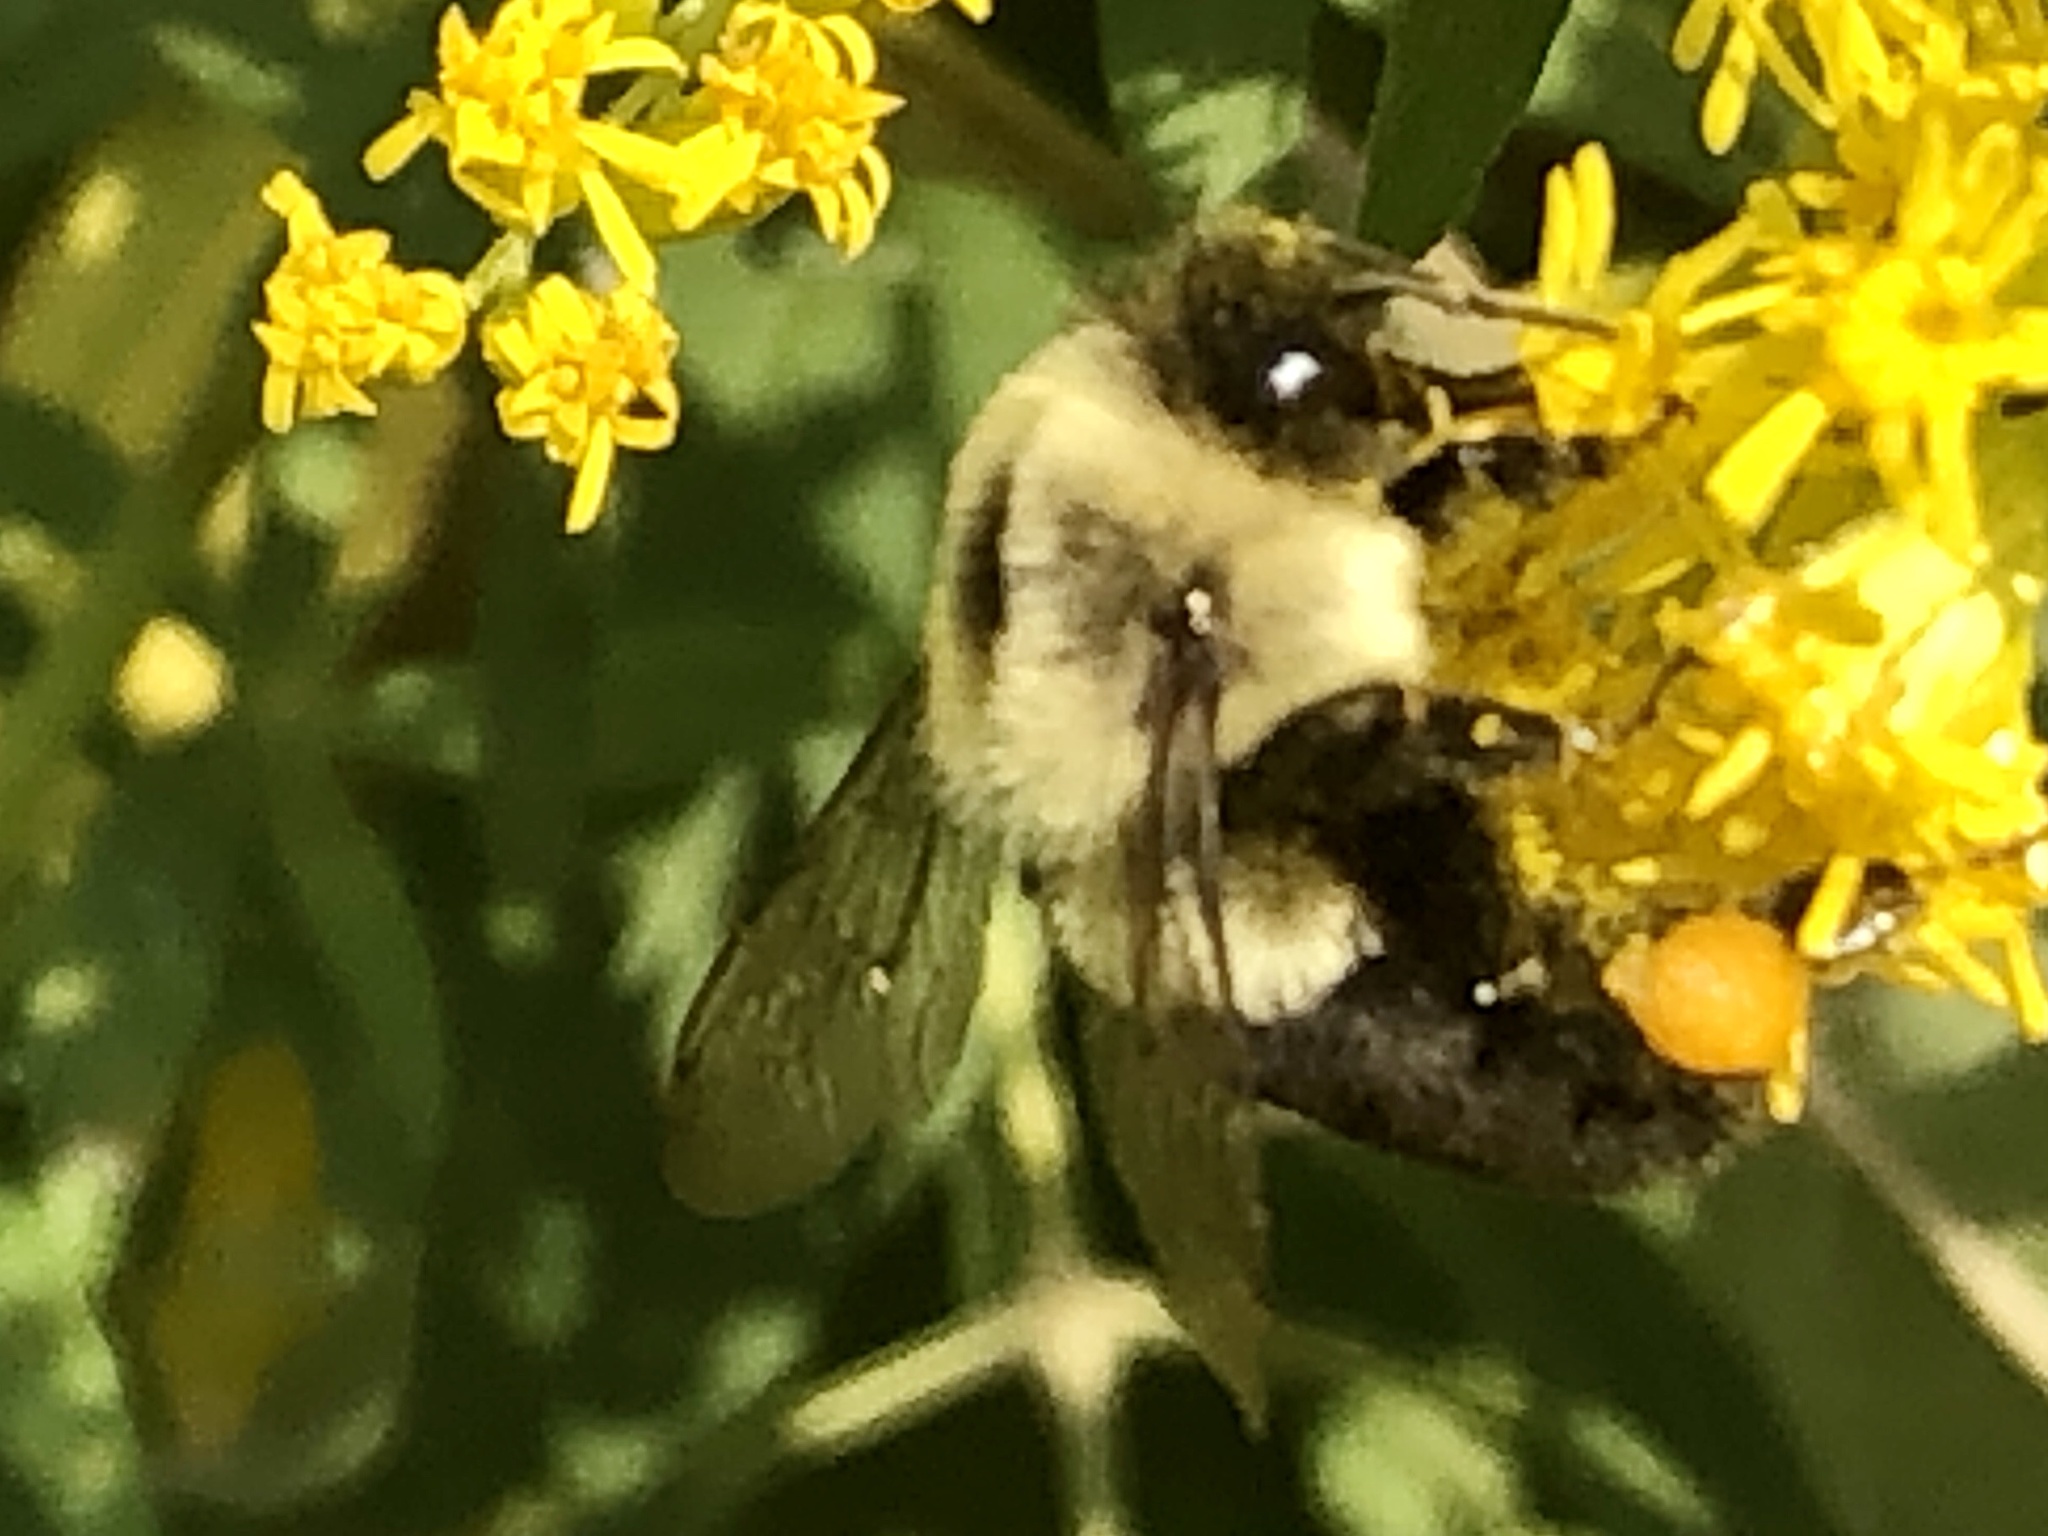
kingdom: Animalia
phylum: Arthropoda
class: Insecta
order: Hymenoptera
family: Apidae
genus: Bombus
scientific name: Bombus impatiens
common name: Common eastern bumble bee
